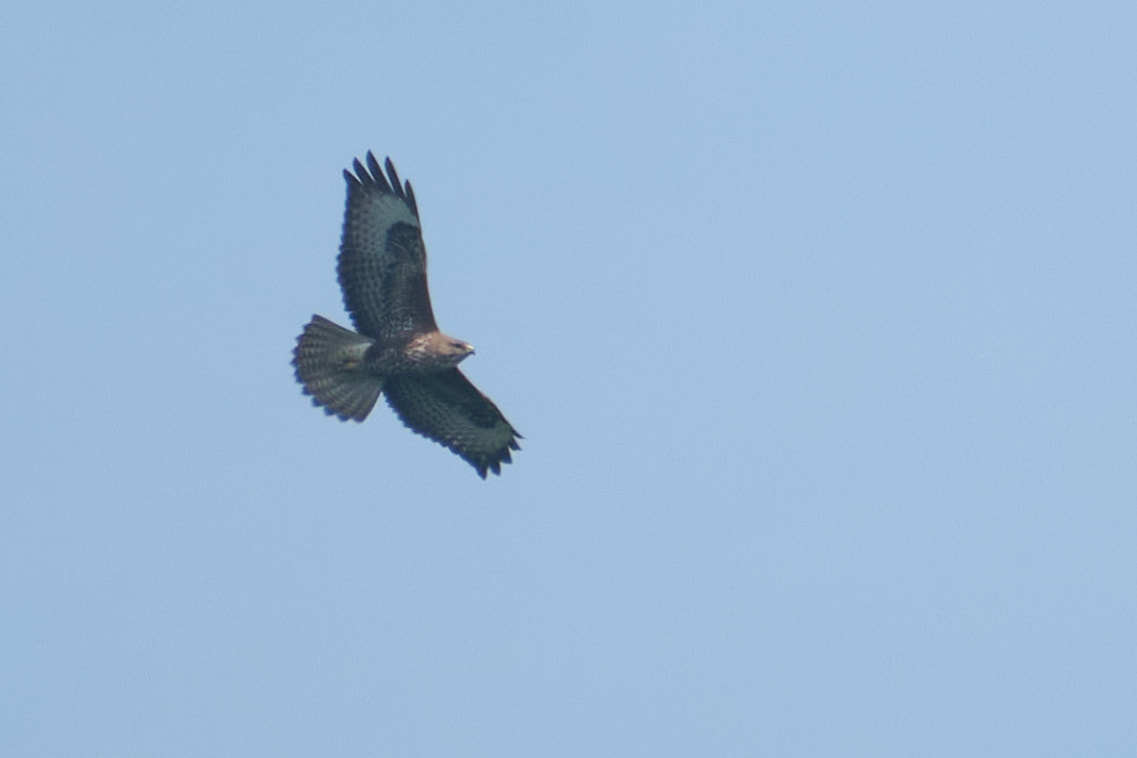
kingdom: Animalia
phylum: Chordata
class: Aves
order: Accipitriformes
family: Accipitridae
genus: Buteo
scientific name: Buteo buteo
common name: Common buzzard
